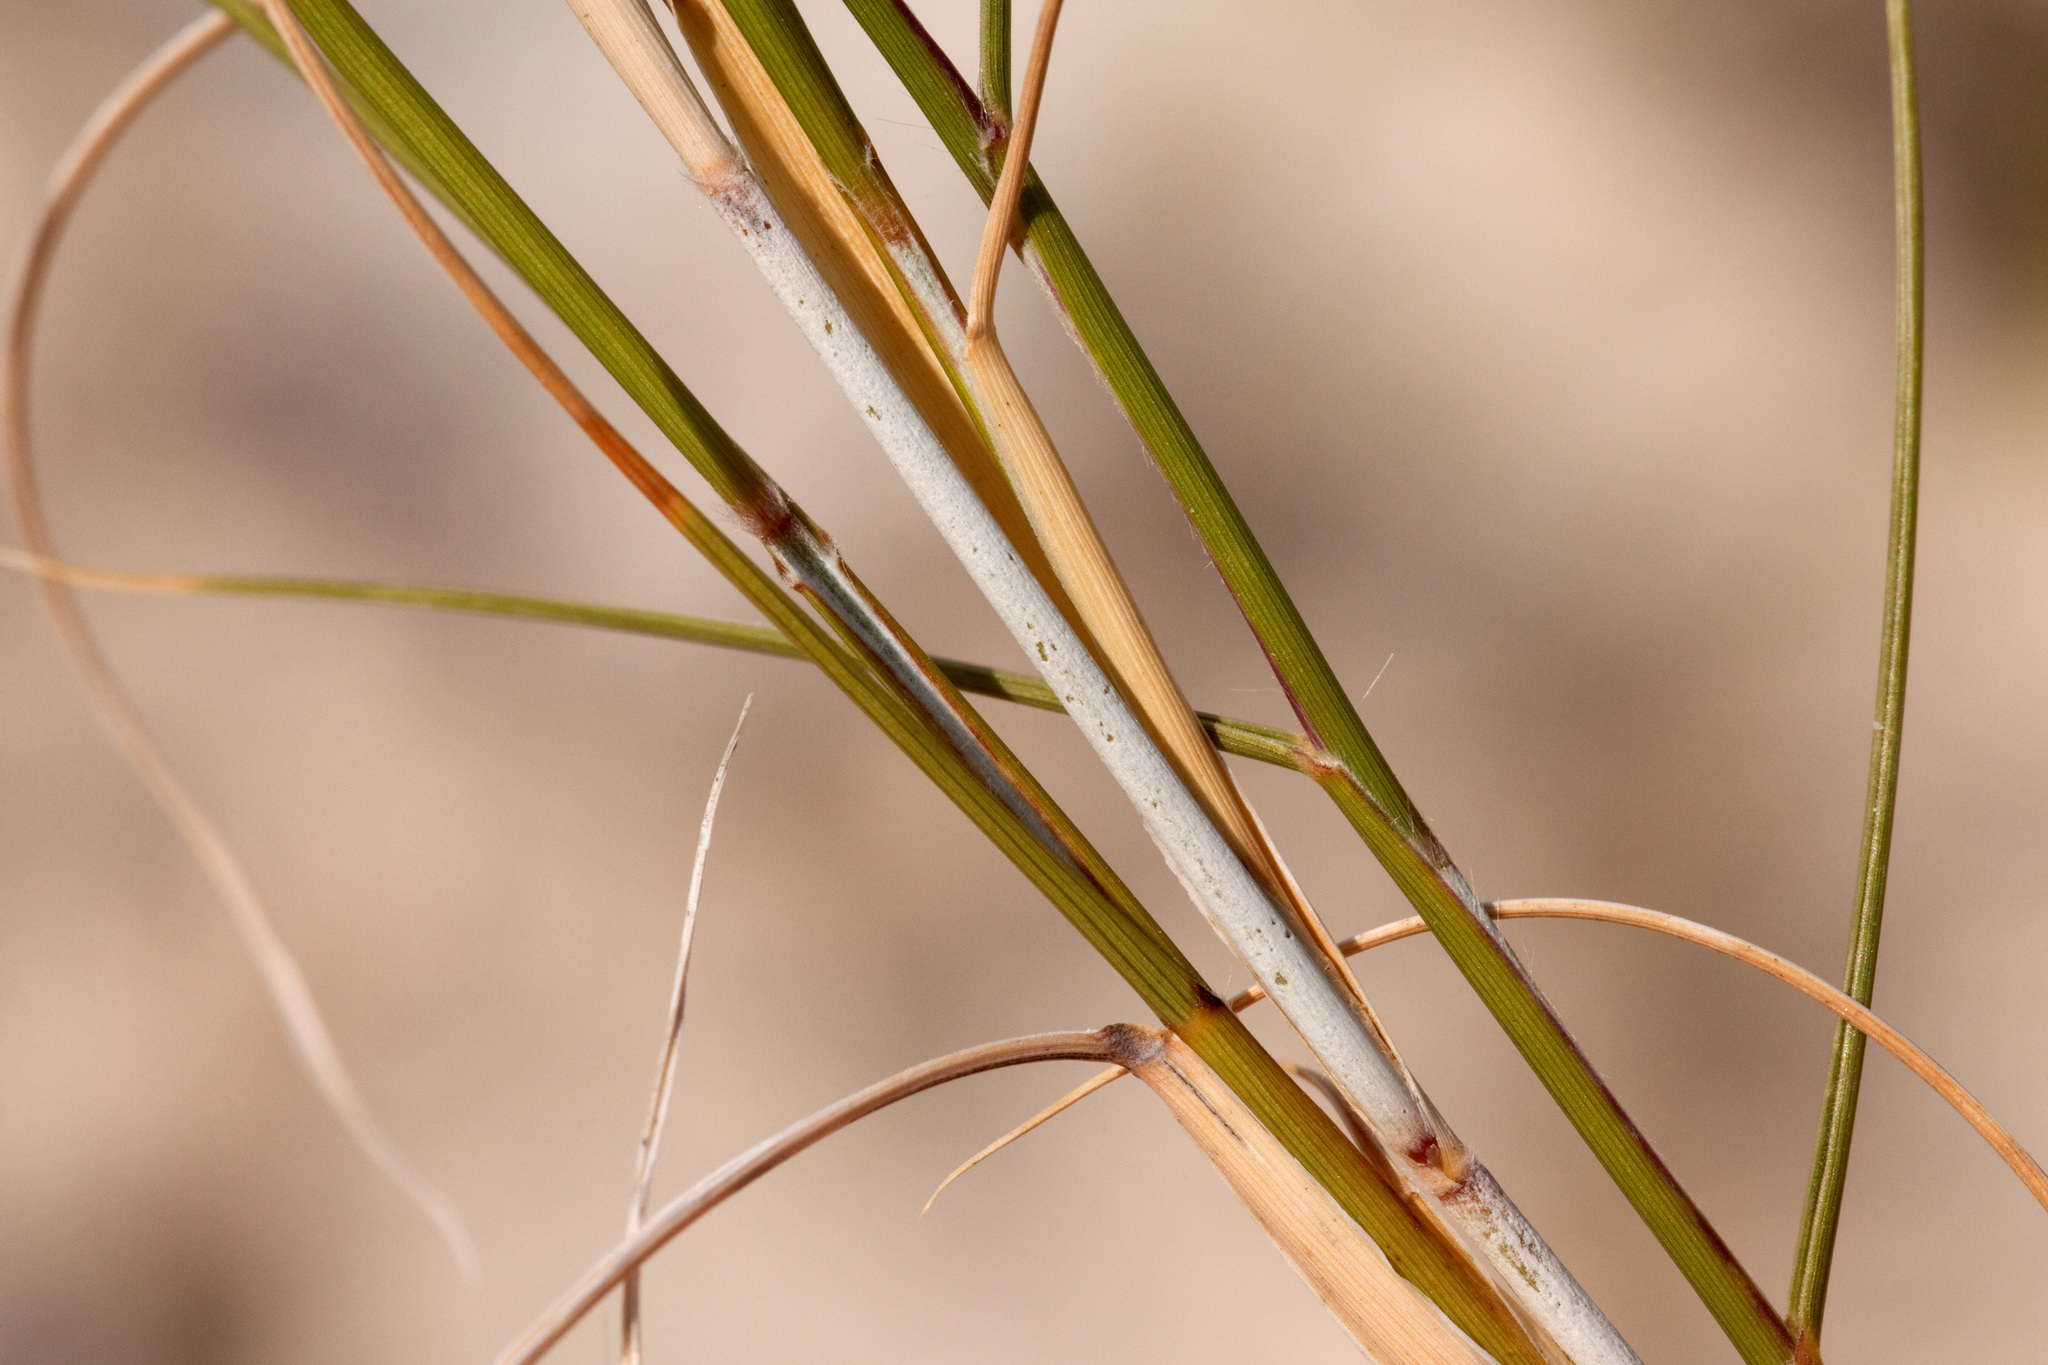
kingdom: Plantae
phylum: Tracheophyta
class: Liliopsida
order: Poales
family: Poaceae
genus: Bouteloua
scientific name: Bouteloua breviseta
